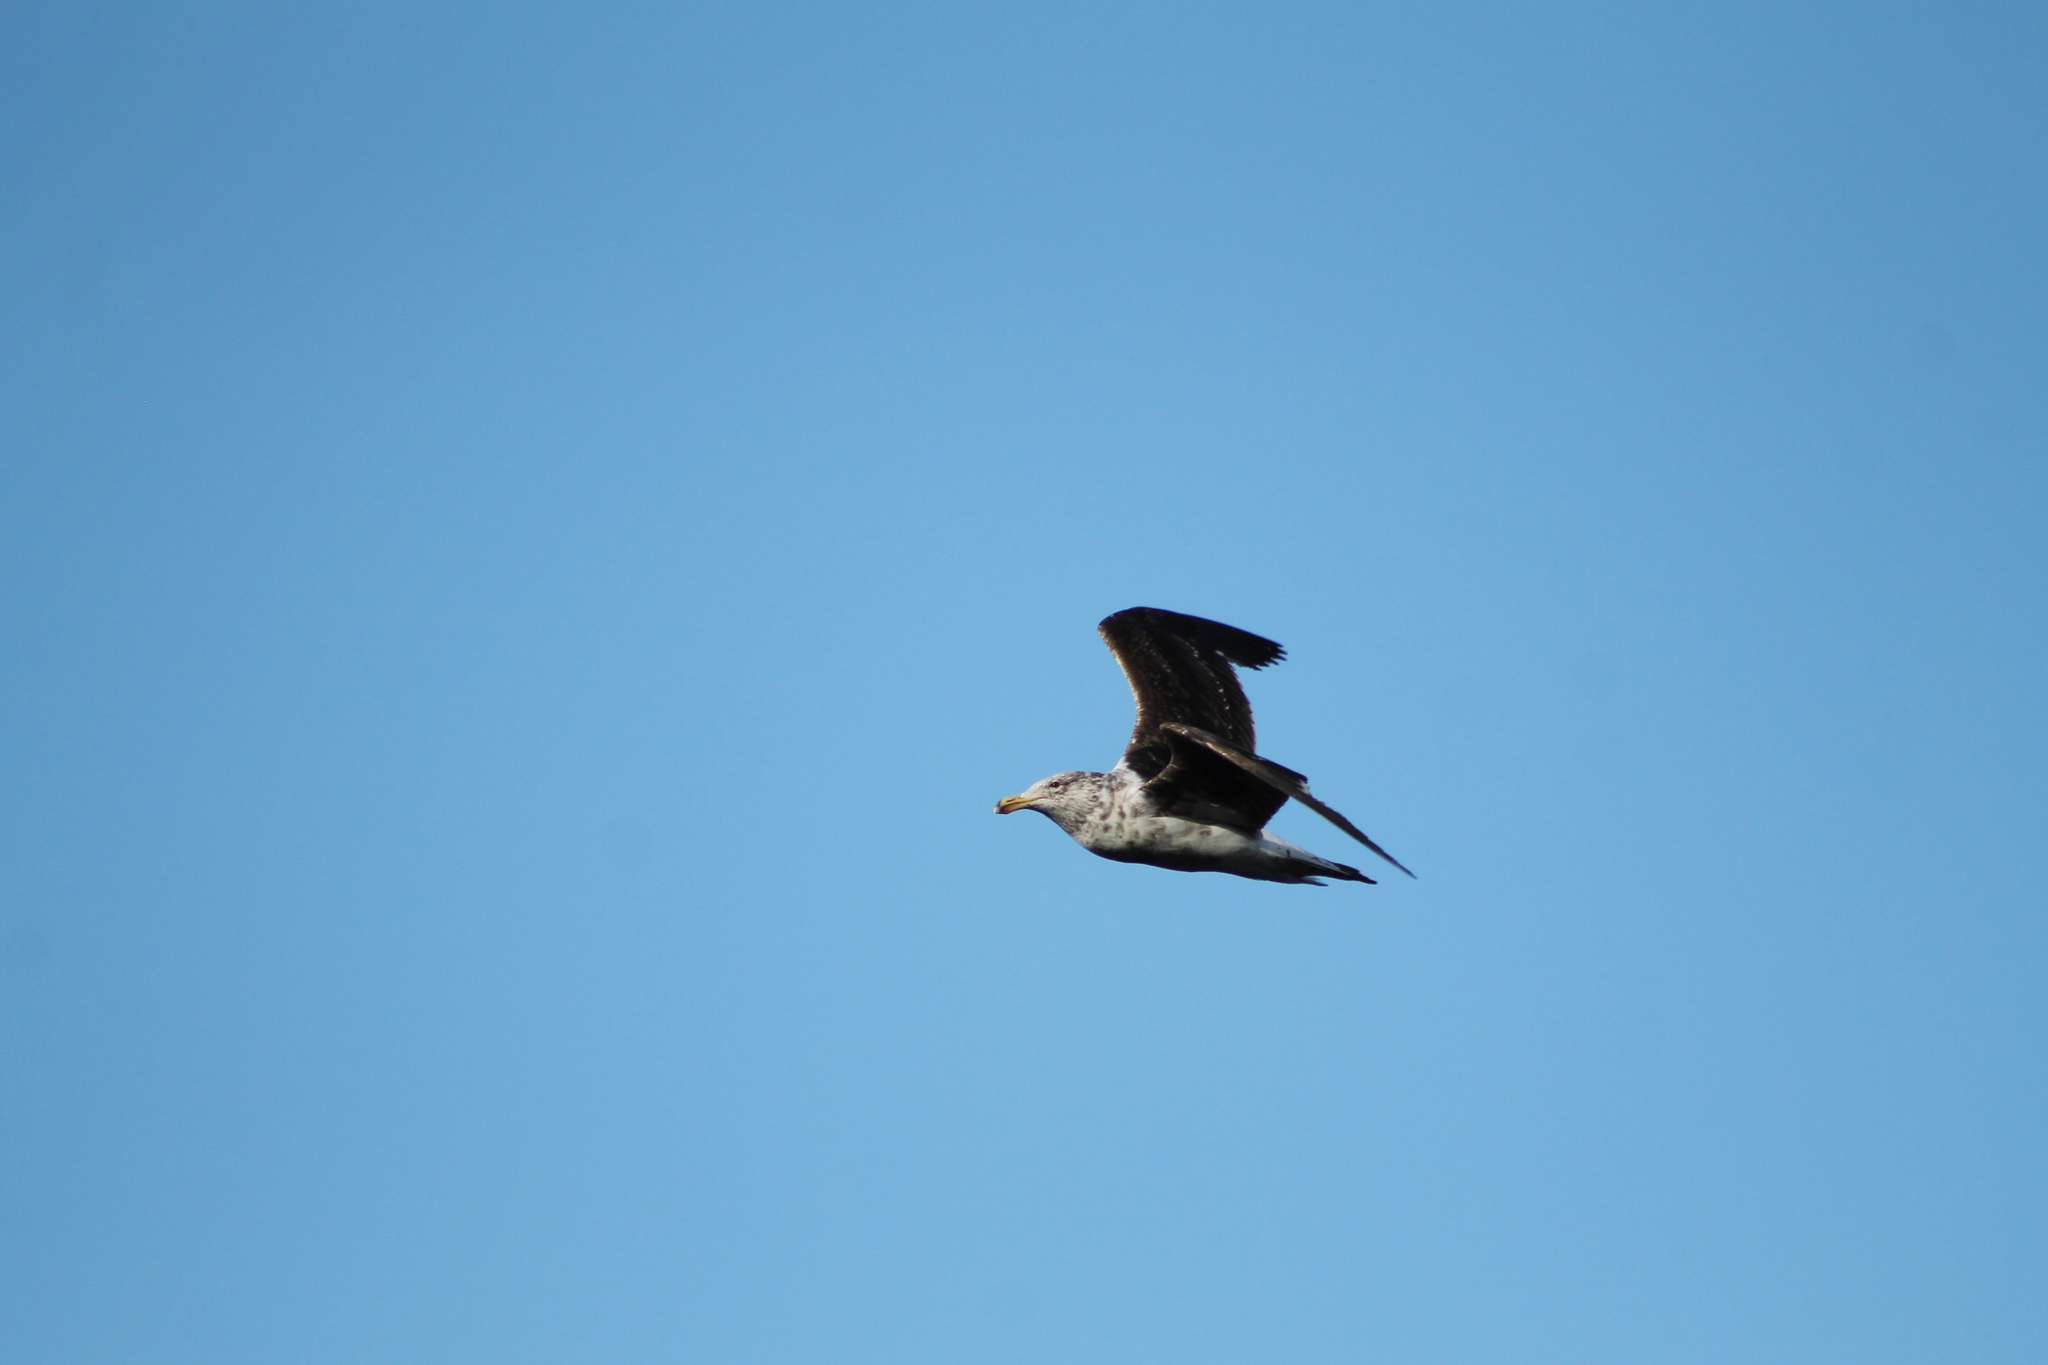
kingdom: Animalia
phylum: Chordata
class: Aves
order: Charadriiformes
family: Laridae
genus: Larus
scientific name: Larus dominicanus
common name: Kelp gull
